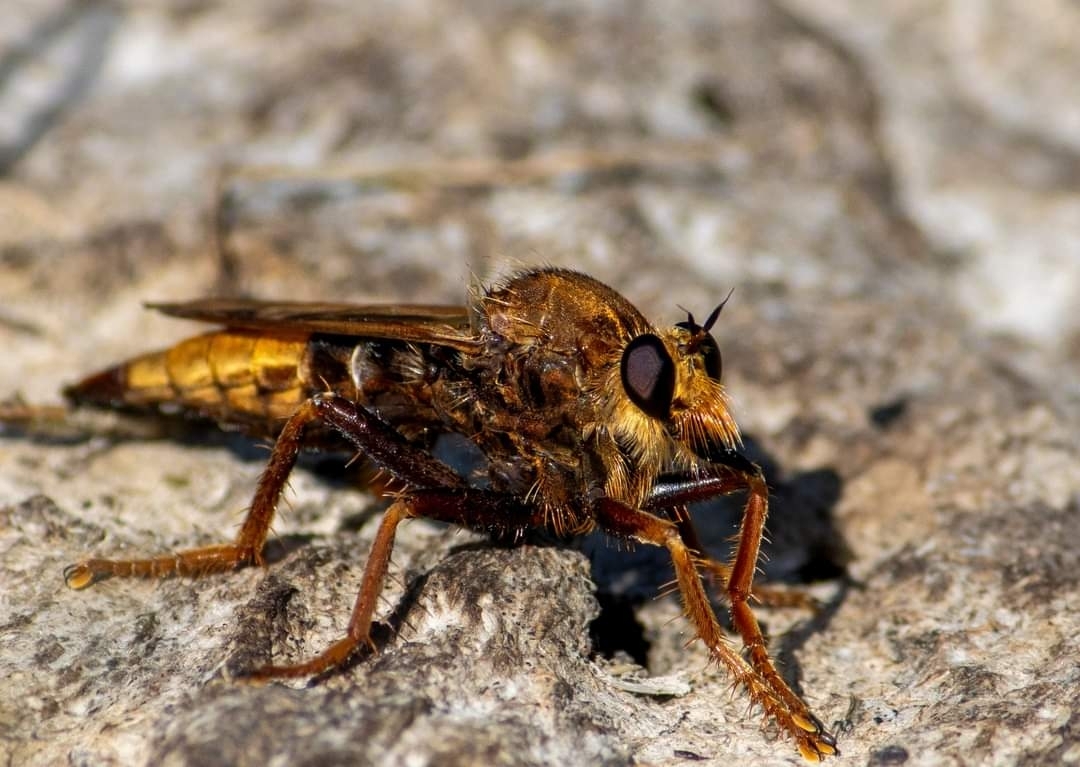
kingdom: Animalia
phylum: Arthropoda
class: Insecta
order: Diptera
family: Asilidae
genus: Asilus
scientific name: Asilus crabroniformis
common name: Hornet robberfly
